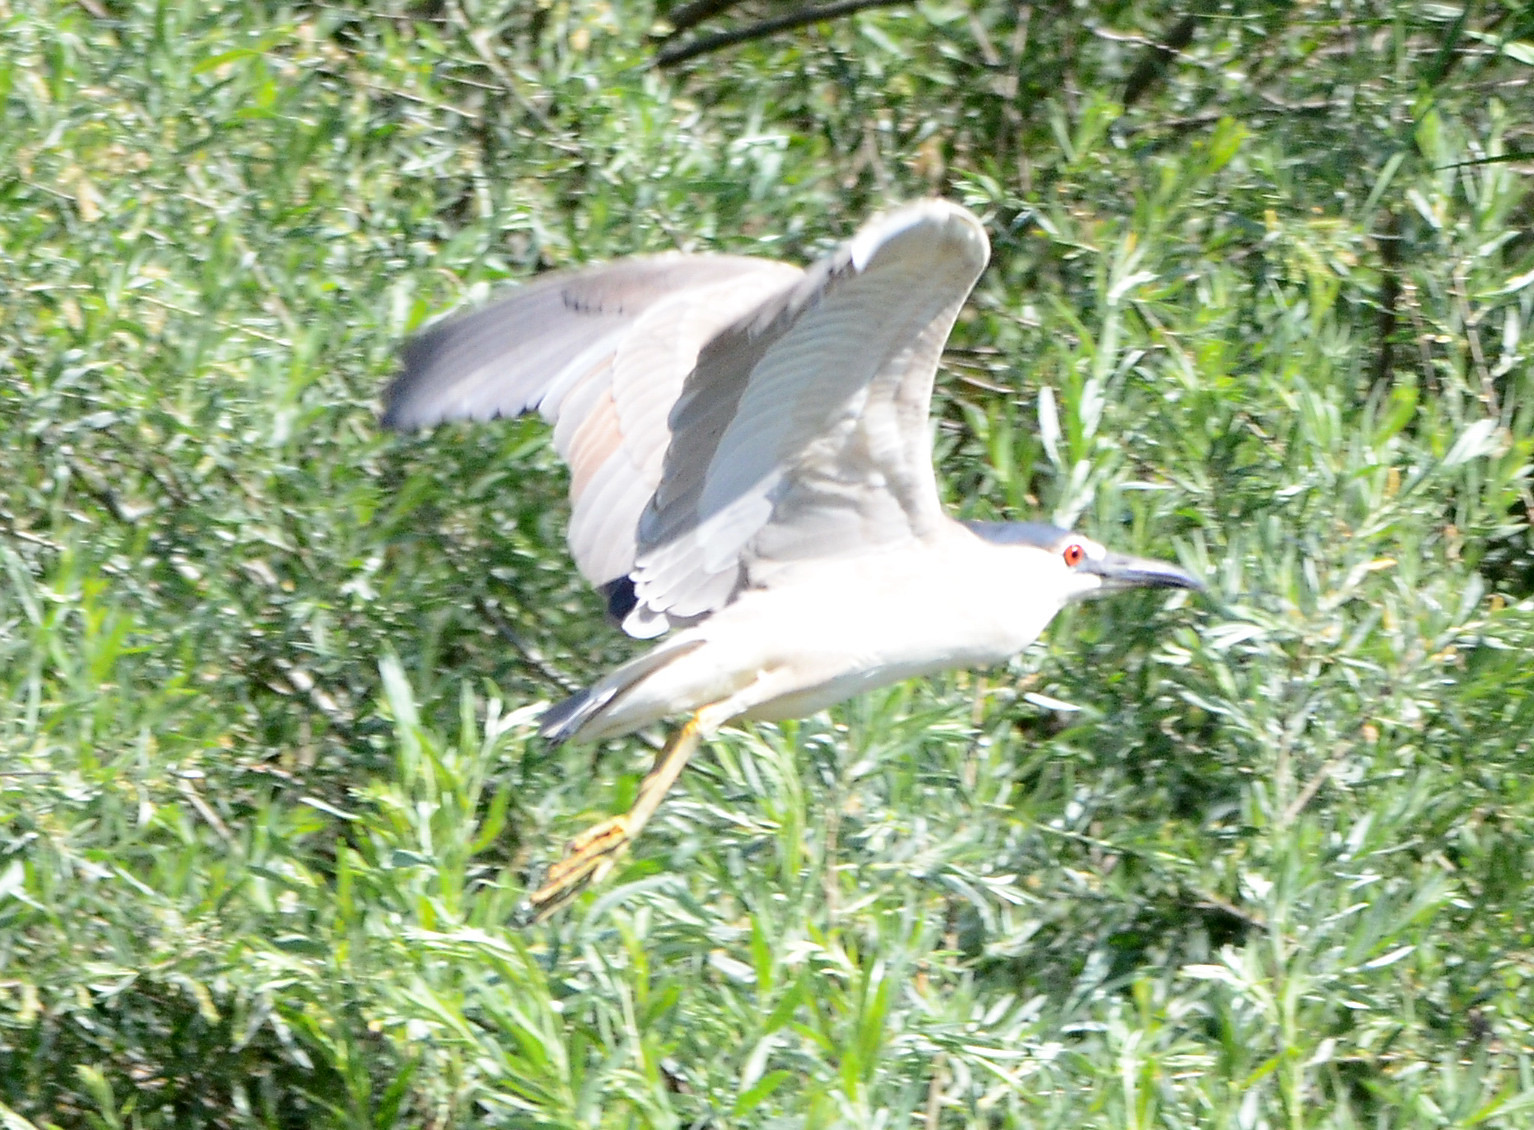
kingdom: Animalia
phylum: Chordata
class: Aves
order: Pelecaniformes
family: Ardeidae
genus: Nycticorax
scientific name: Nycticorax nycticorax
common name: Black-crowned night heron
